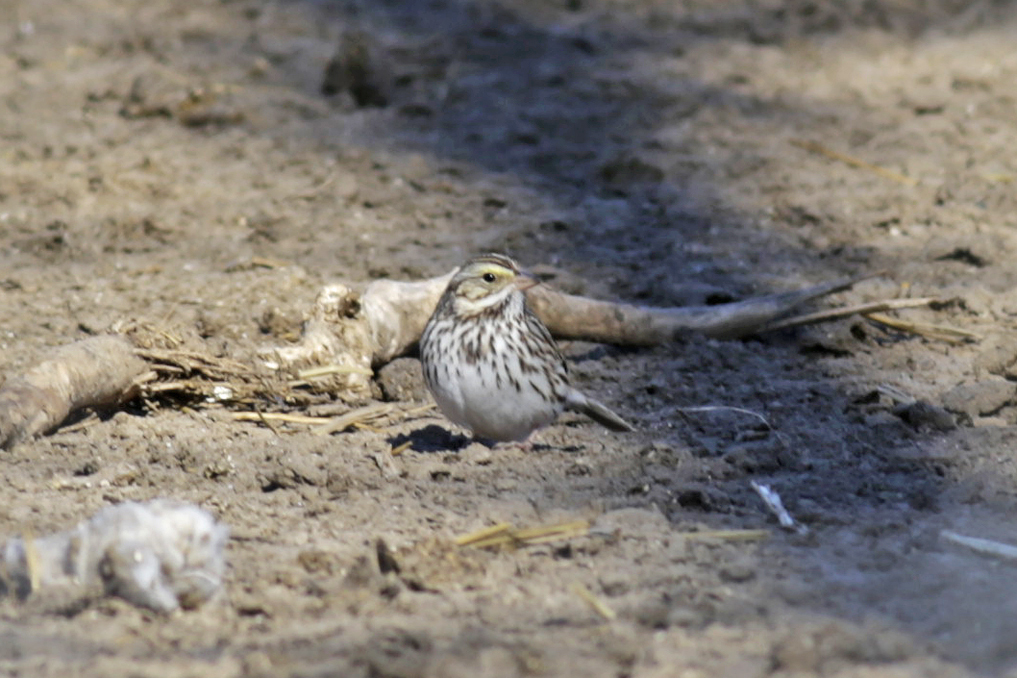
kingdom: Animalia
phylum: Chordata
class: Aves
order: Passeriformes
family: Passerellidae
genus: Passerculus
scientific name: Passerculus sandwichensis
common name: Savannah sparrow
